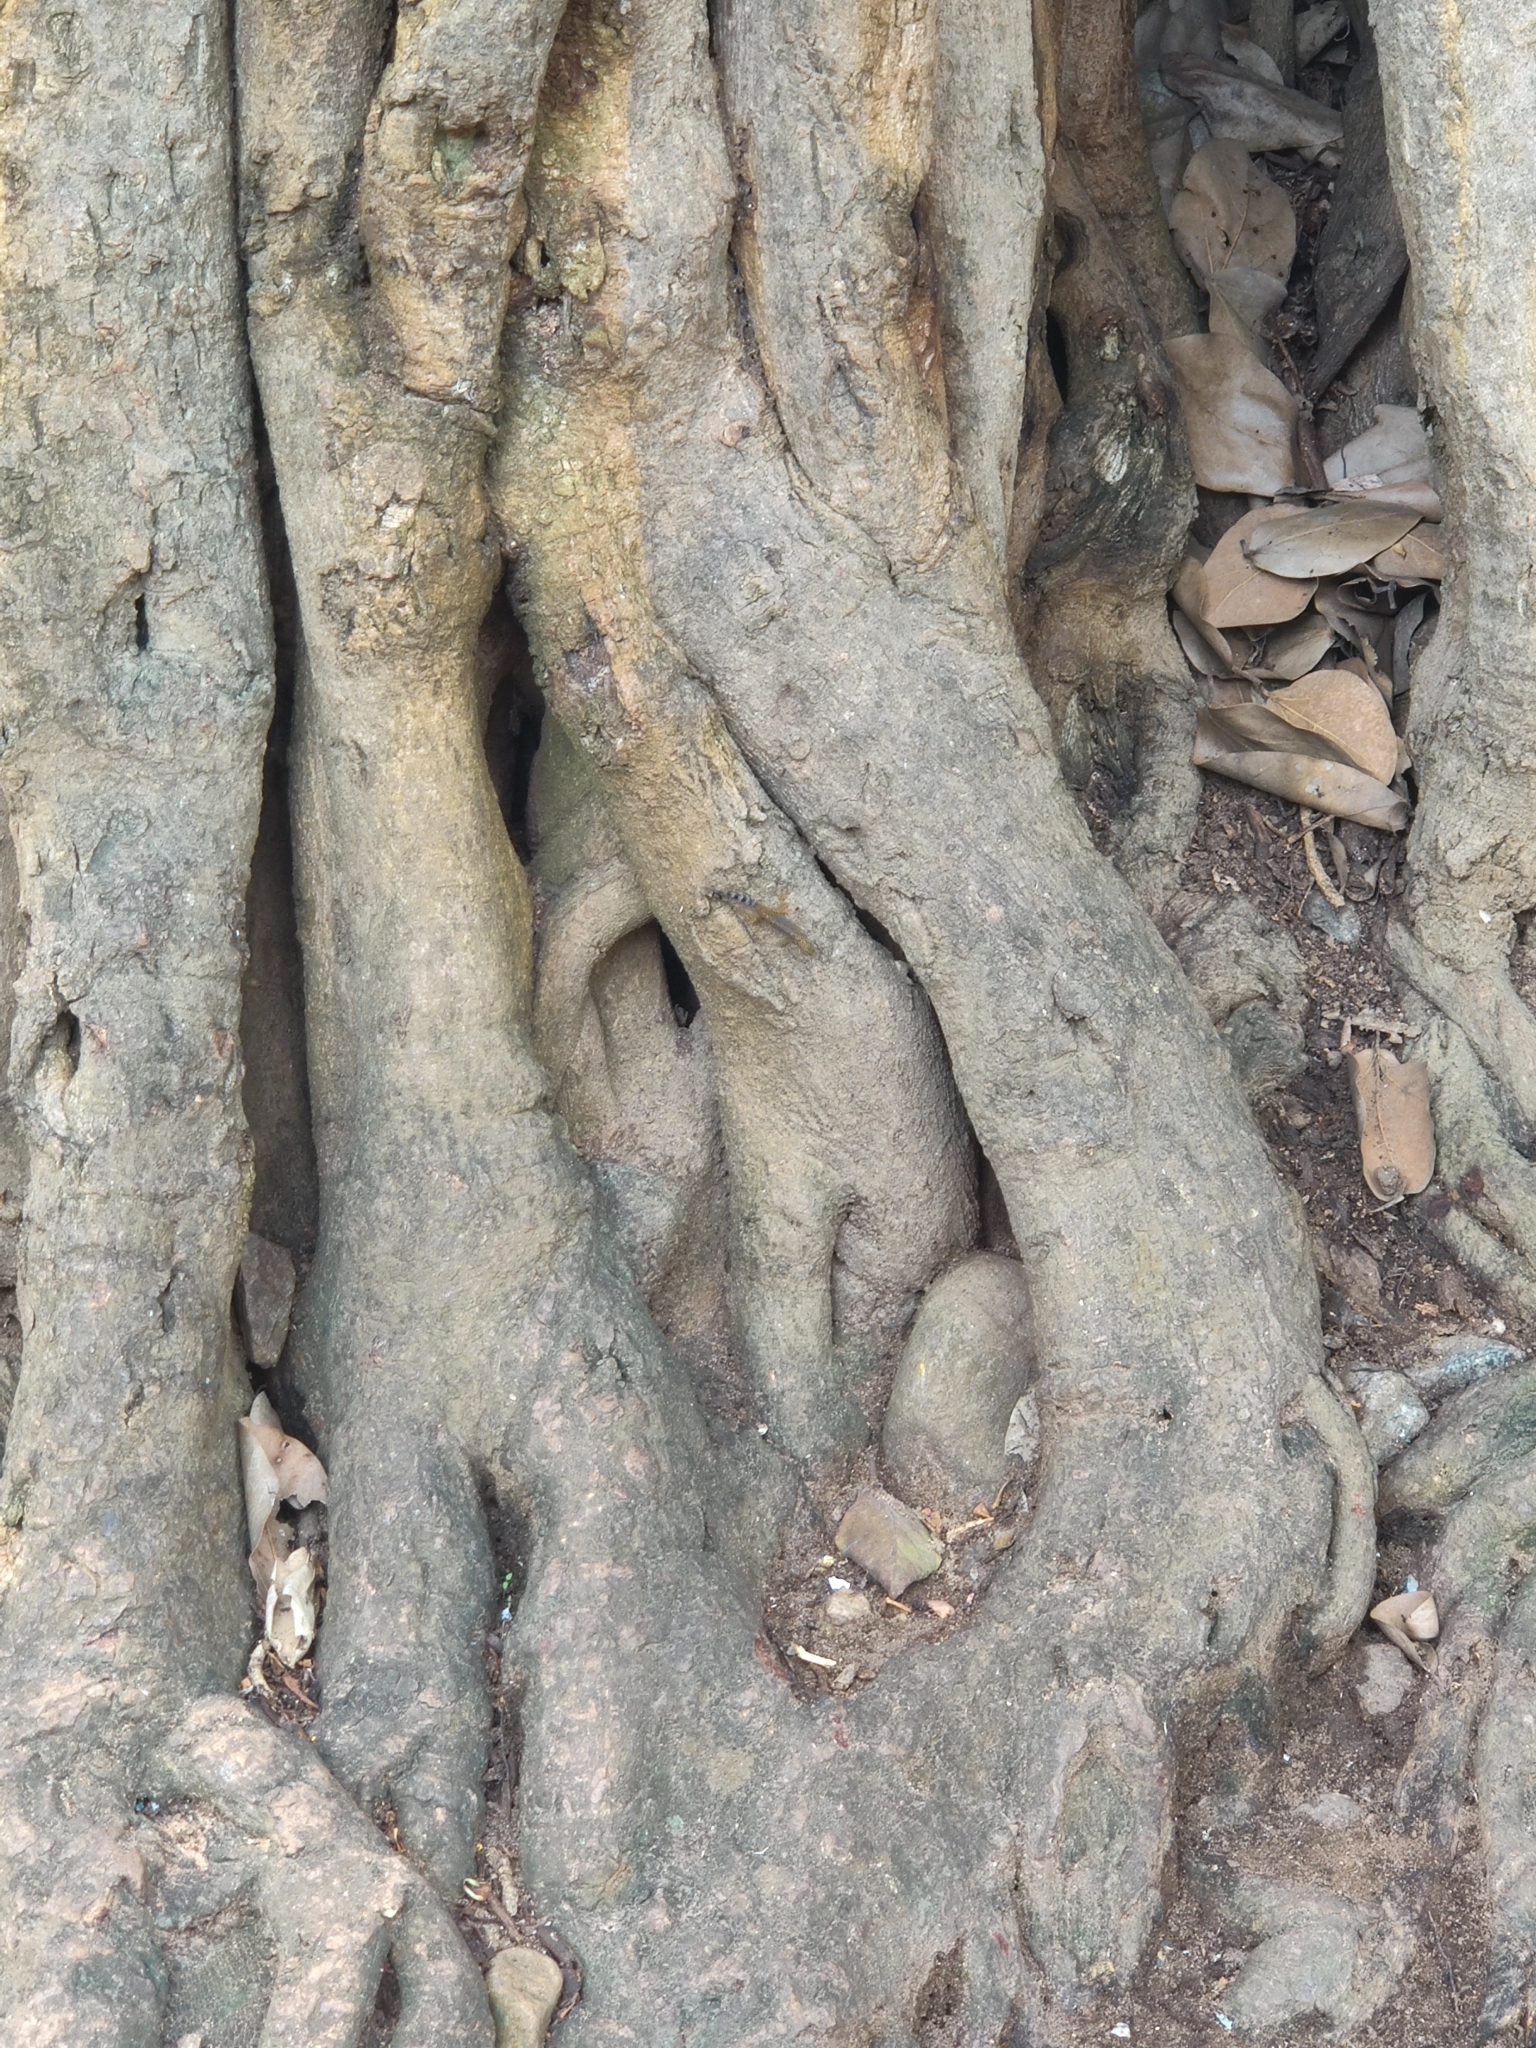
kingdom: Animalia
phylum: Chordata
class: Squamata
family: Gekkonidae
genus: Cnemaspis
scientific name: Cnemaspis gracilis
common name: Graceful day gecko
